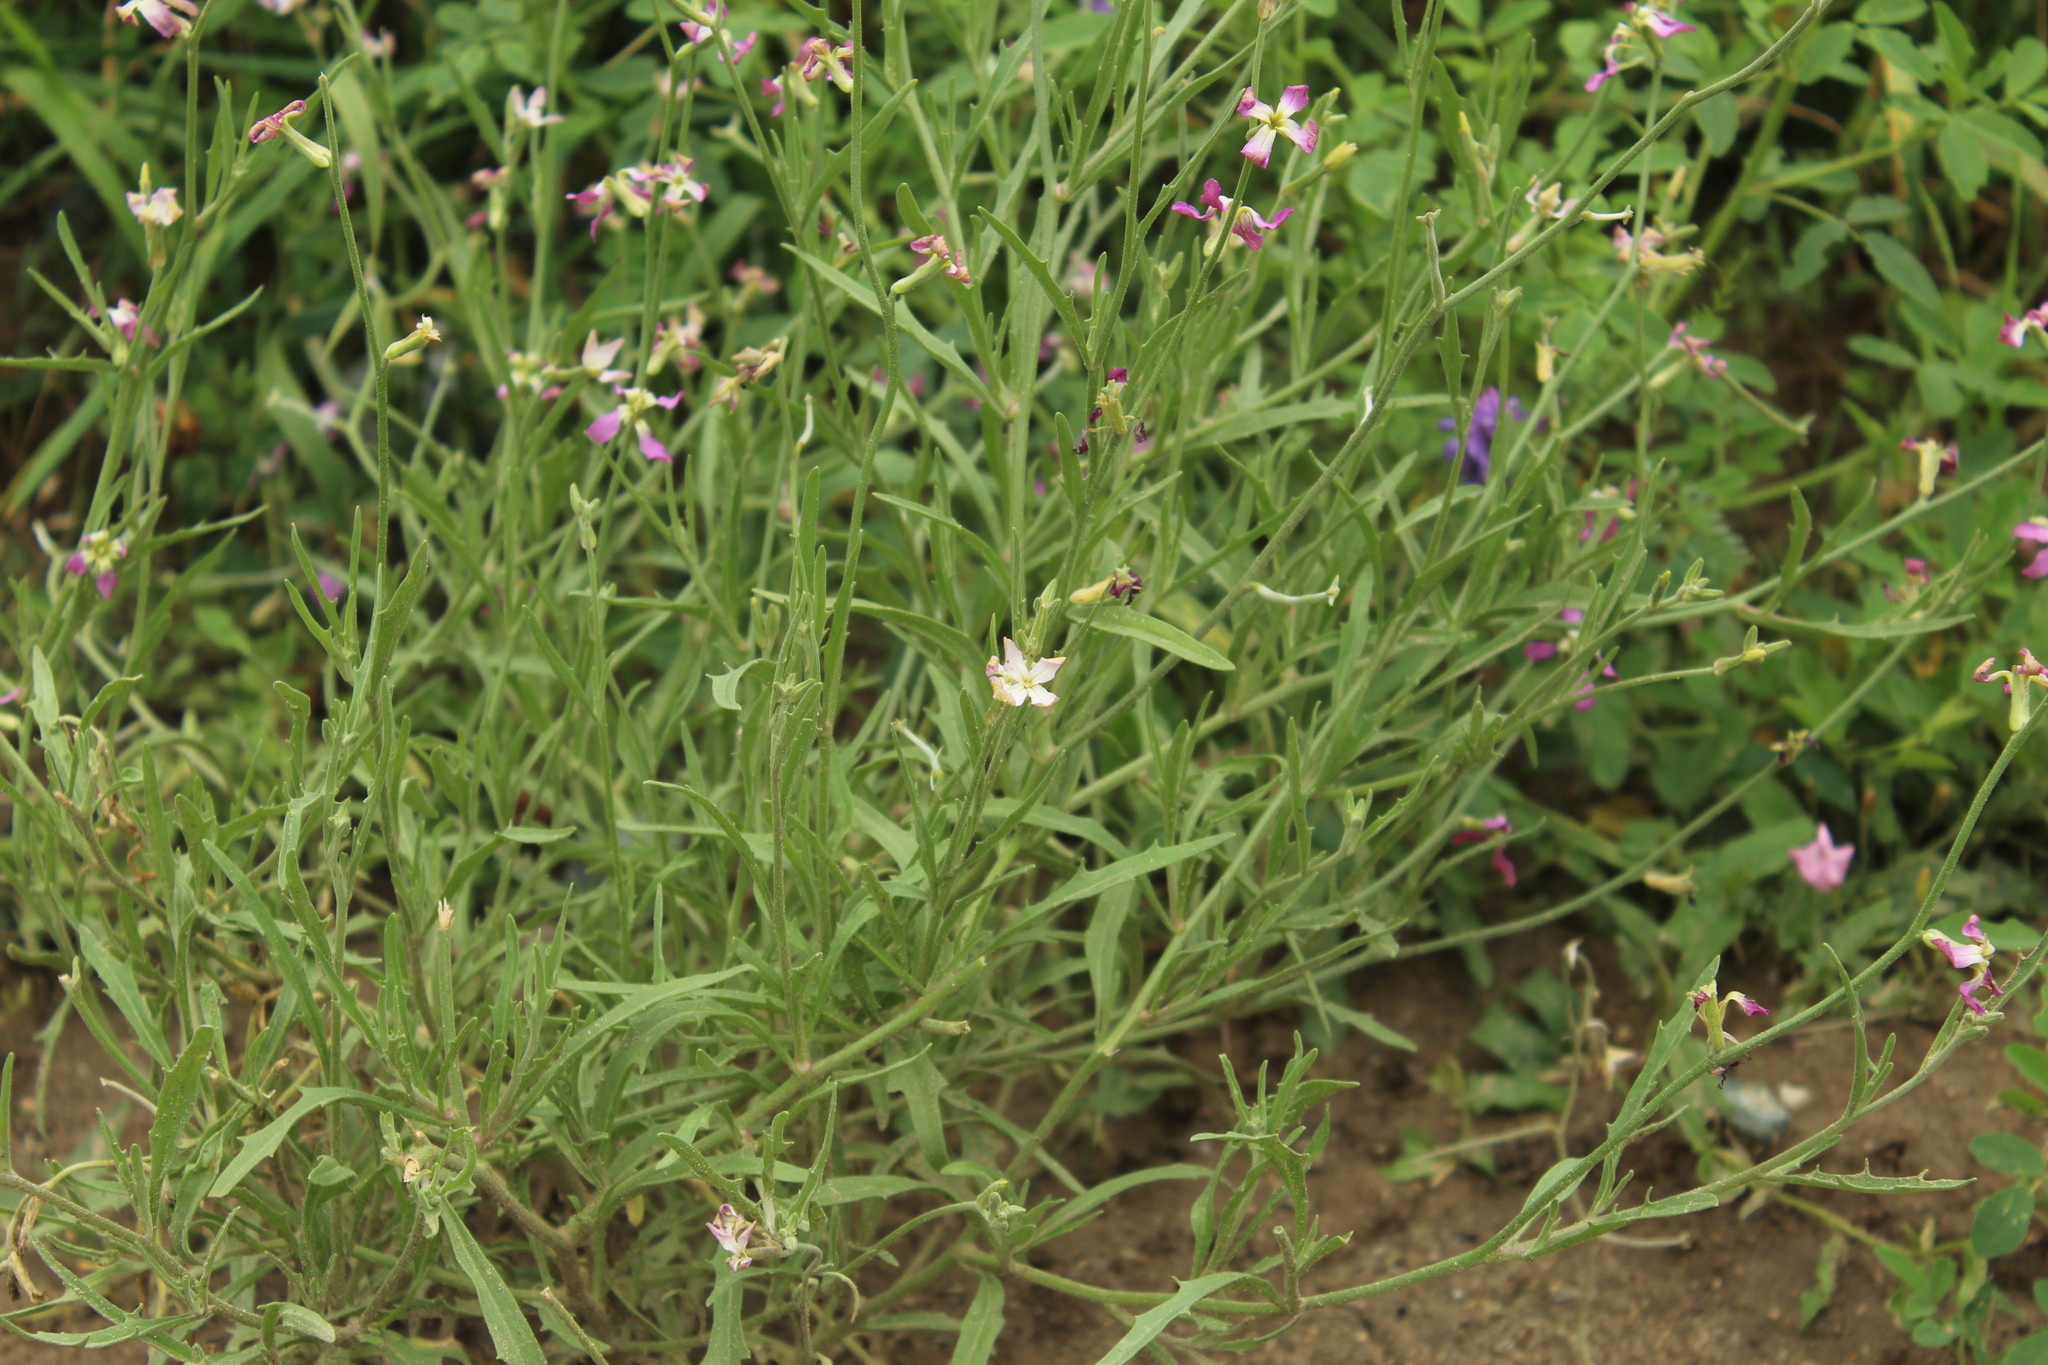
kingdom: Plantae
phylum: Tracheophyta
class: Magnoliopsida
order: Brassicales
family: Brassicaceae
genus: Matthiola
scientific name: Matthiola longipetala
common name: Night-scented stock
